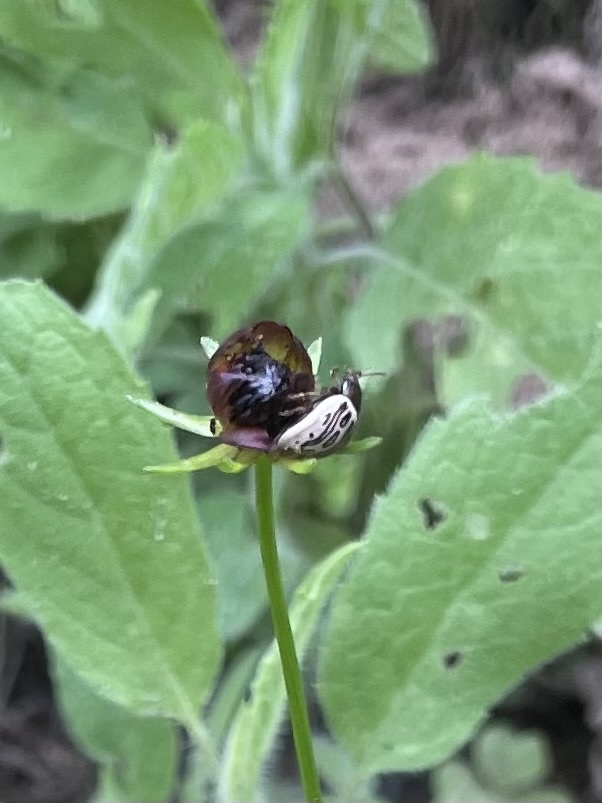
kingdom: Animalia
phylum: Arthropoda
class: Insecta
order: Coleoptera
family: Chrysomelidae
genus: Calligrapha
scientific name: Calligrapha
